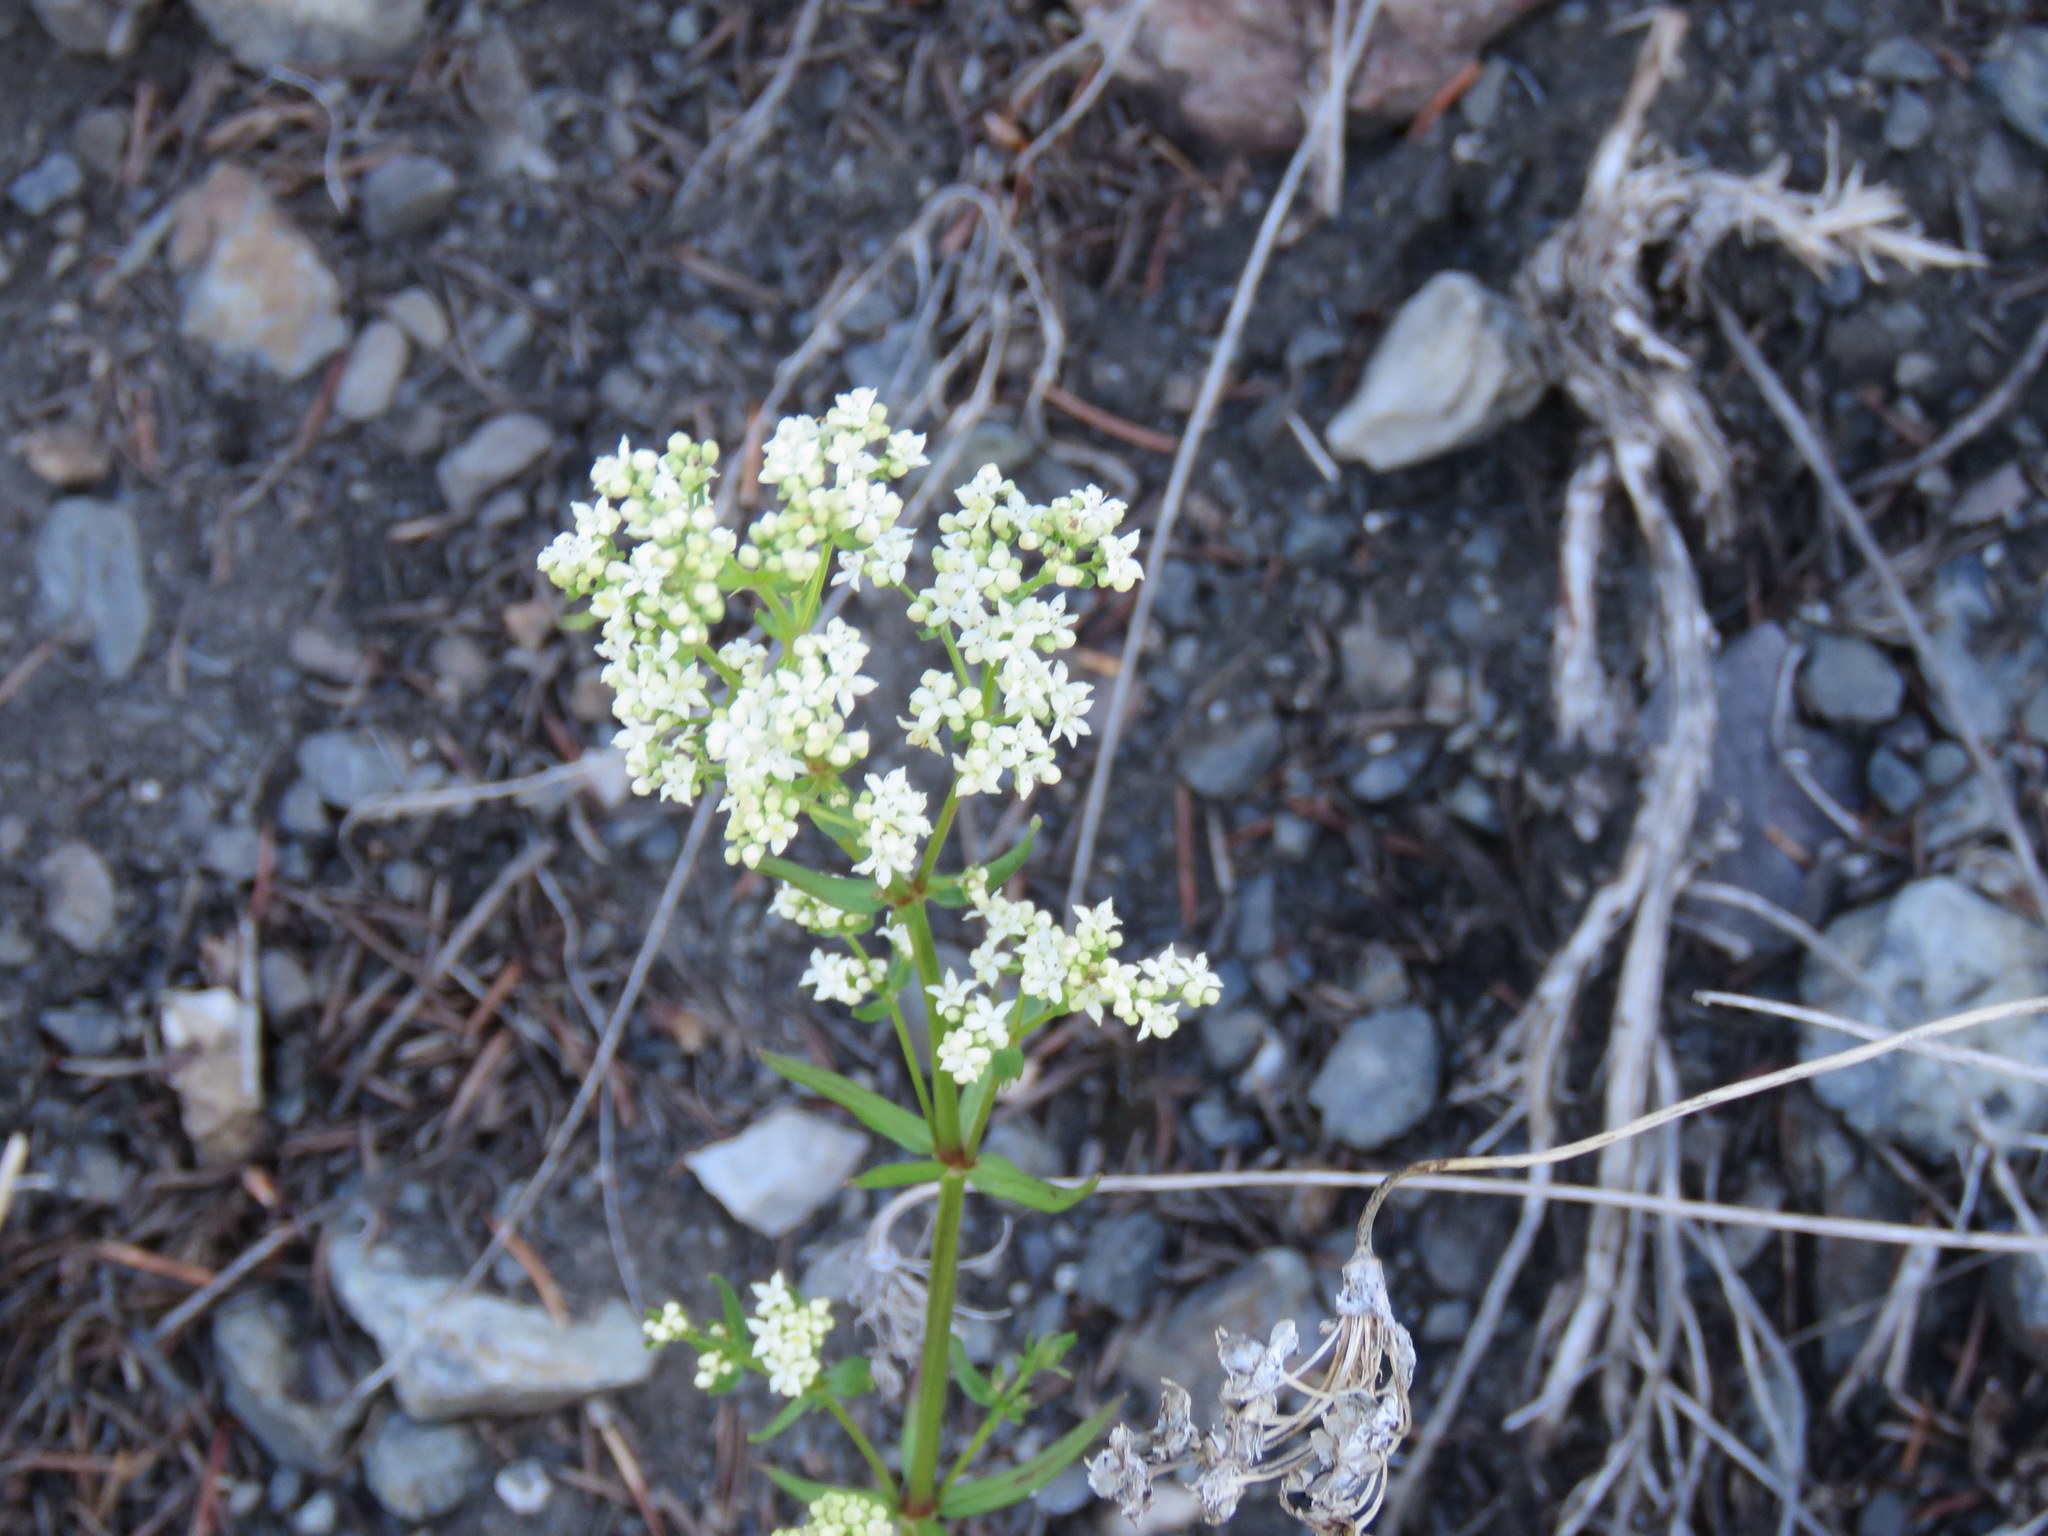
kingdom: Plantae
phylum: Tracheophyta
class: Magnoliopsida
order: Gentianales
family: Rubiaceae
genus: Galium
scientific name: Galium boreale
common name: Northern bedstraw
